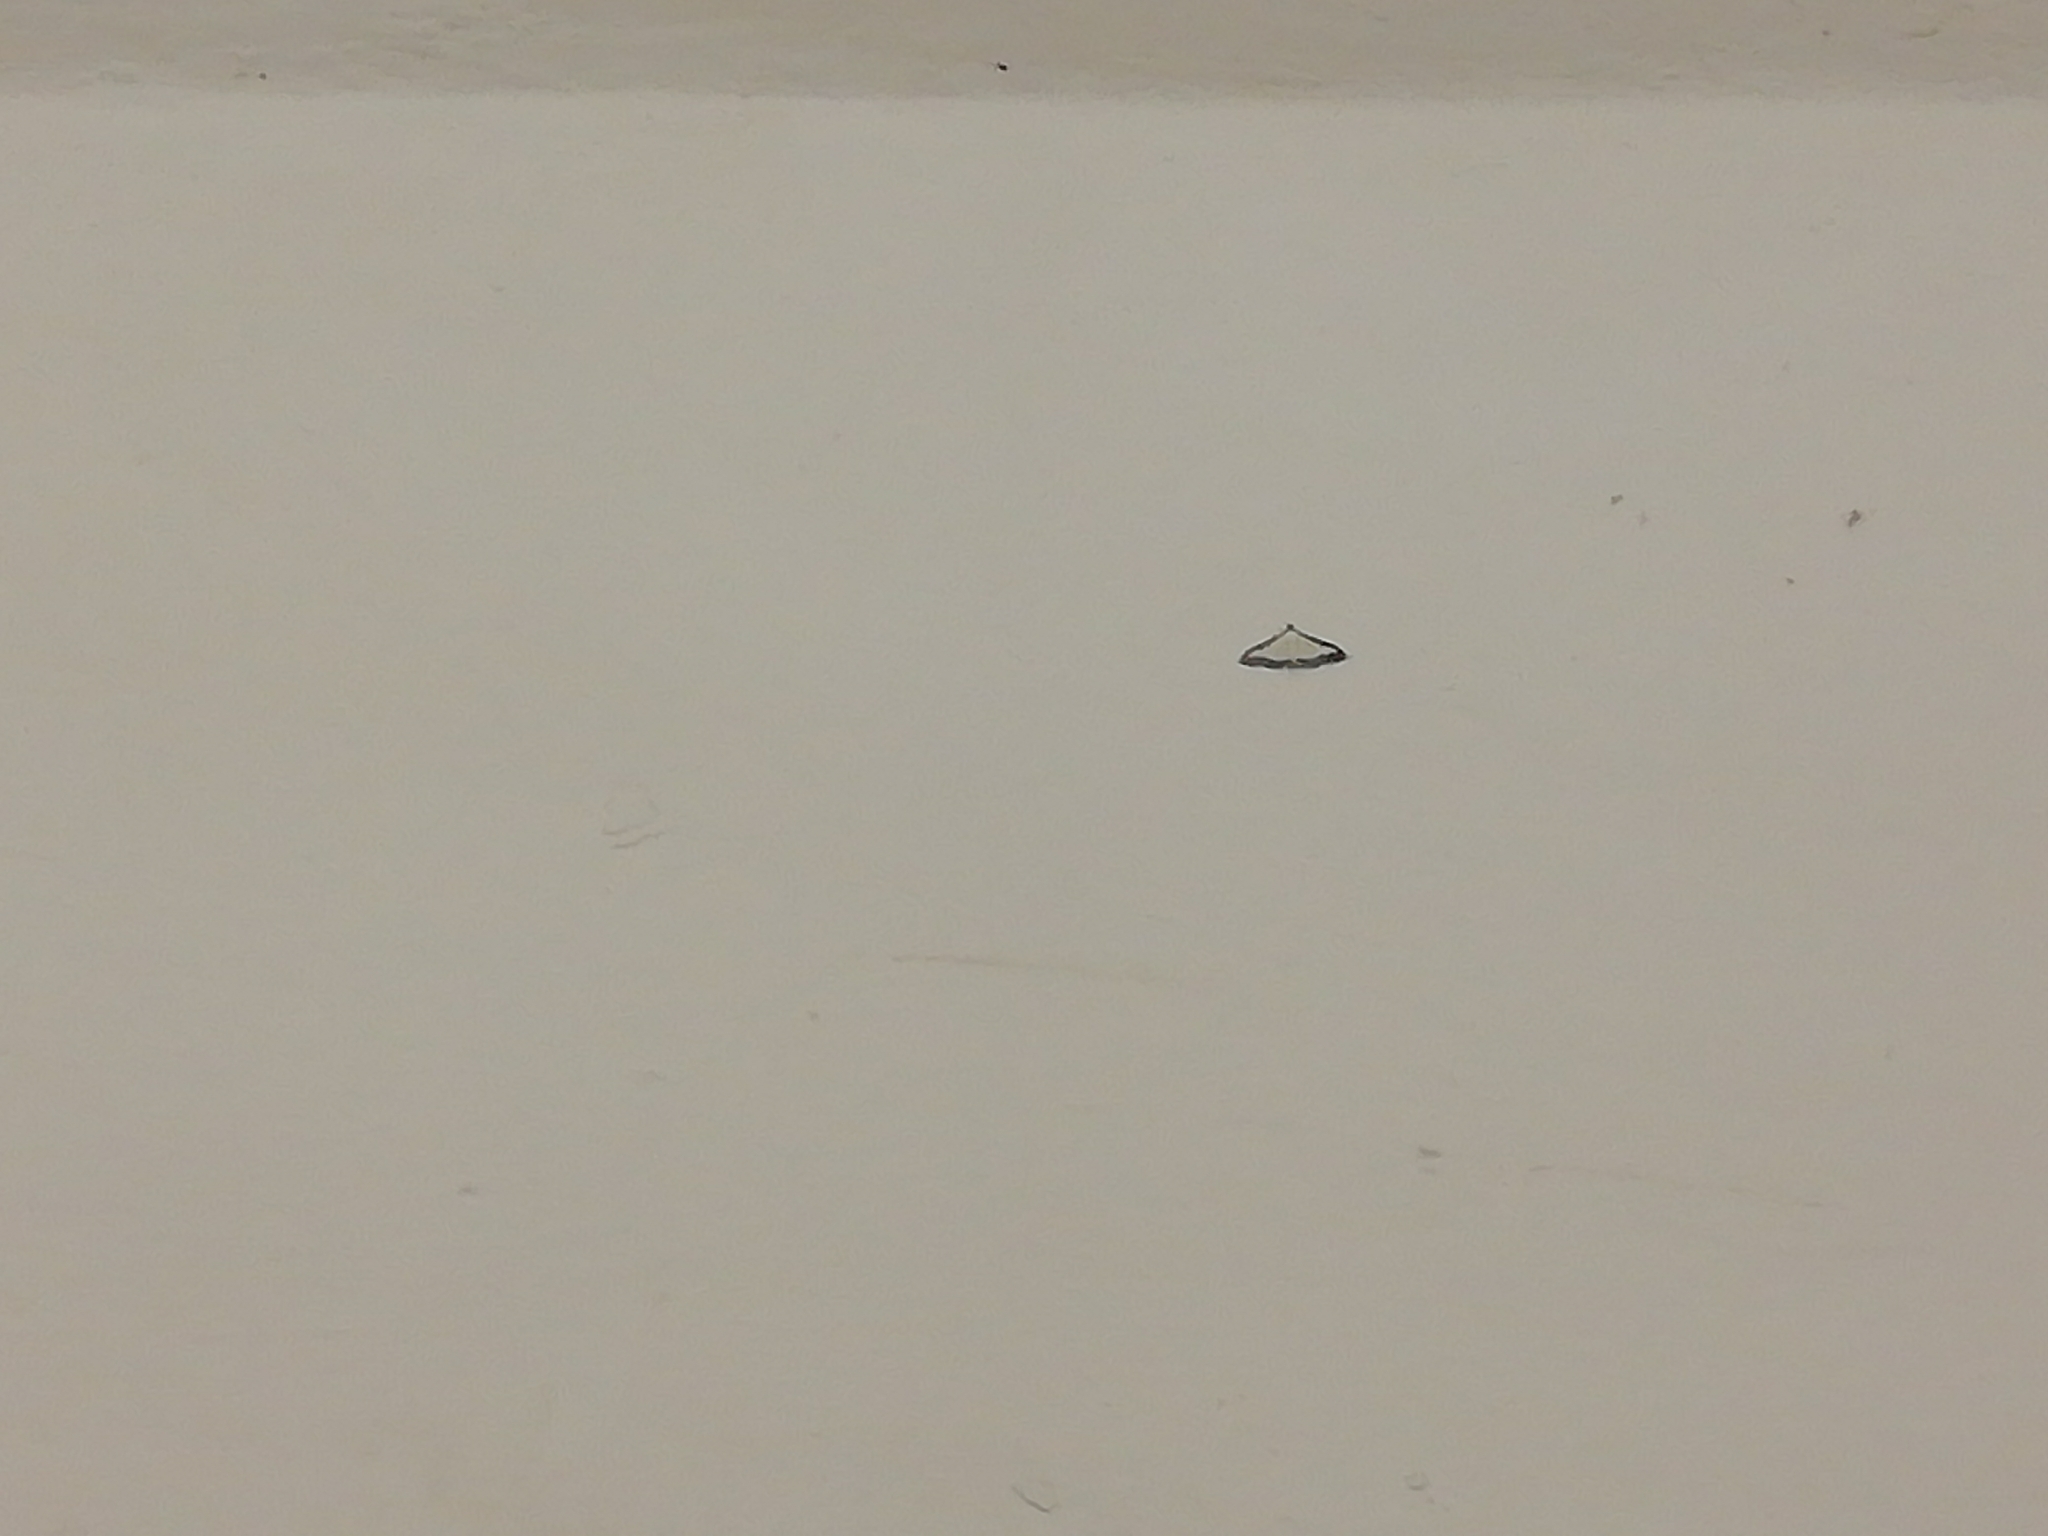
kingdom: Animalia
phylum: Arthropoda
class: Insecta
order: Lepidoptera
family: Crambidae
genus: Cydalima
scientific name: Cydalima perspectalis
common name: Box tree moth
